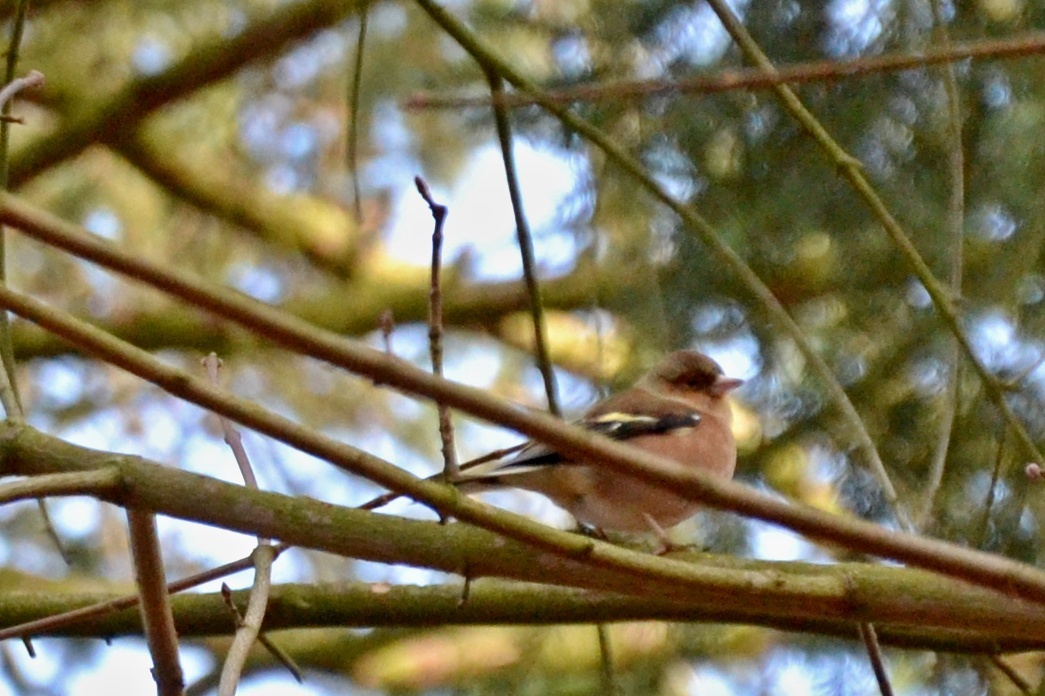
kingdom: Animalia
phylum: Chordata
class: Aves
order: Passeriformes
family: Fringillidae
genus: Fringilla
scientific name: Fringilla coelebs
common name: Common chaffinch
